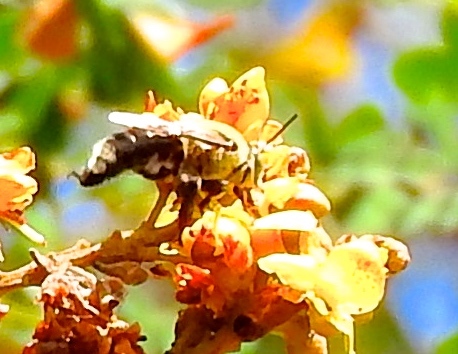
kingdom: Animalia
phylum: Arthropoda
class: Insecta
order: Hymenoptera
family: Apidae
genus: Centris
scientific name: Centris nitida
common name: Oil-collecting bee
